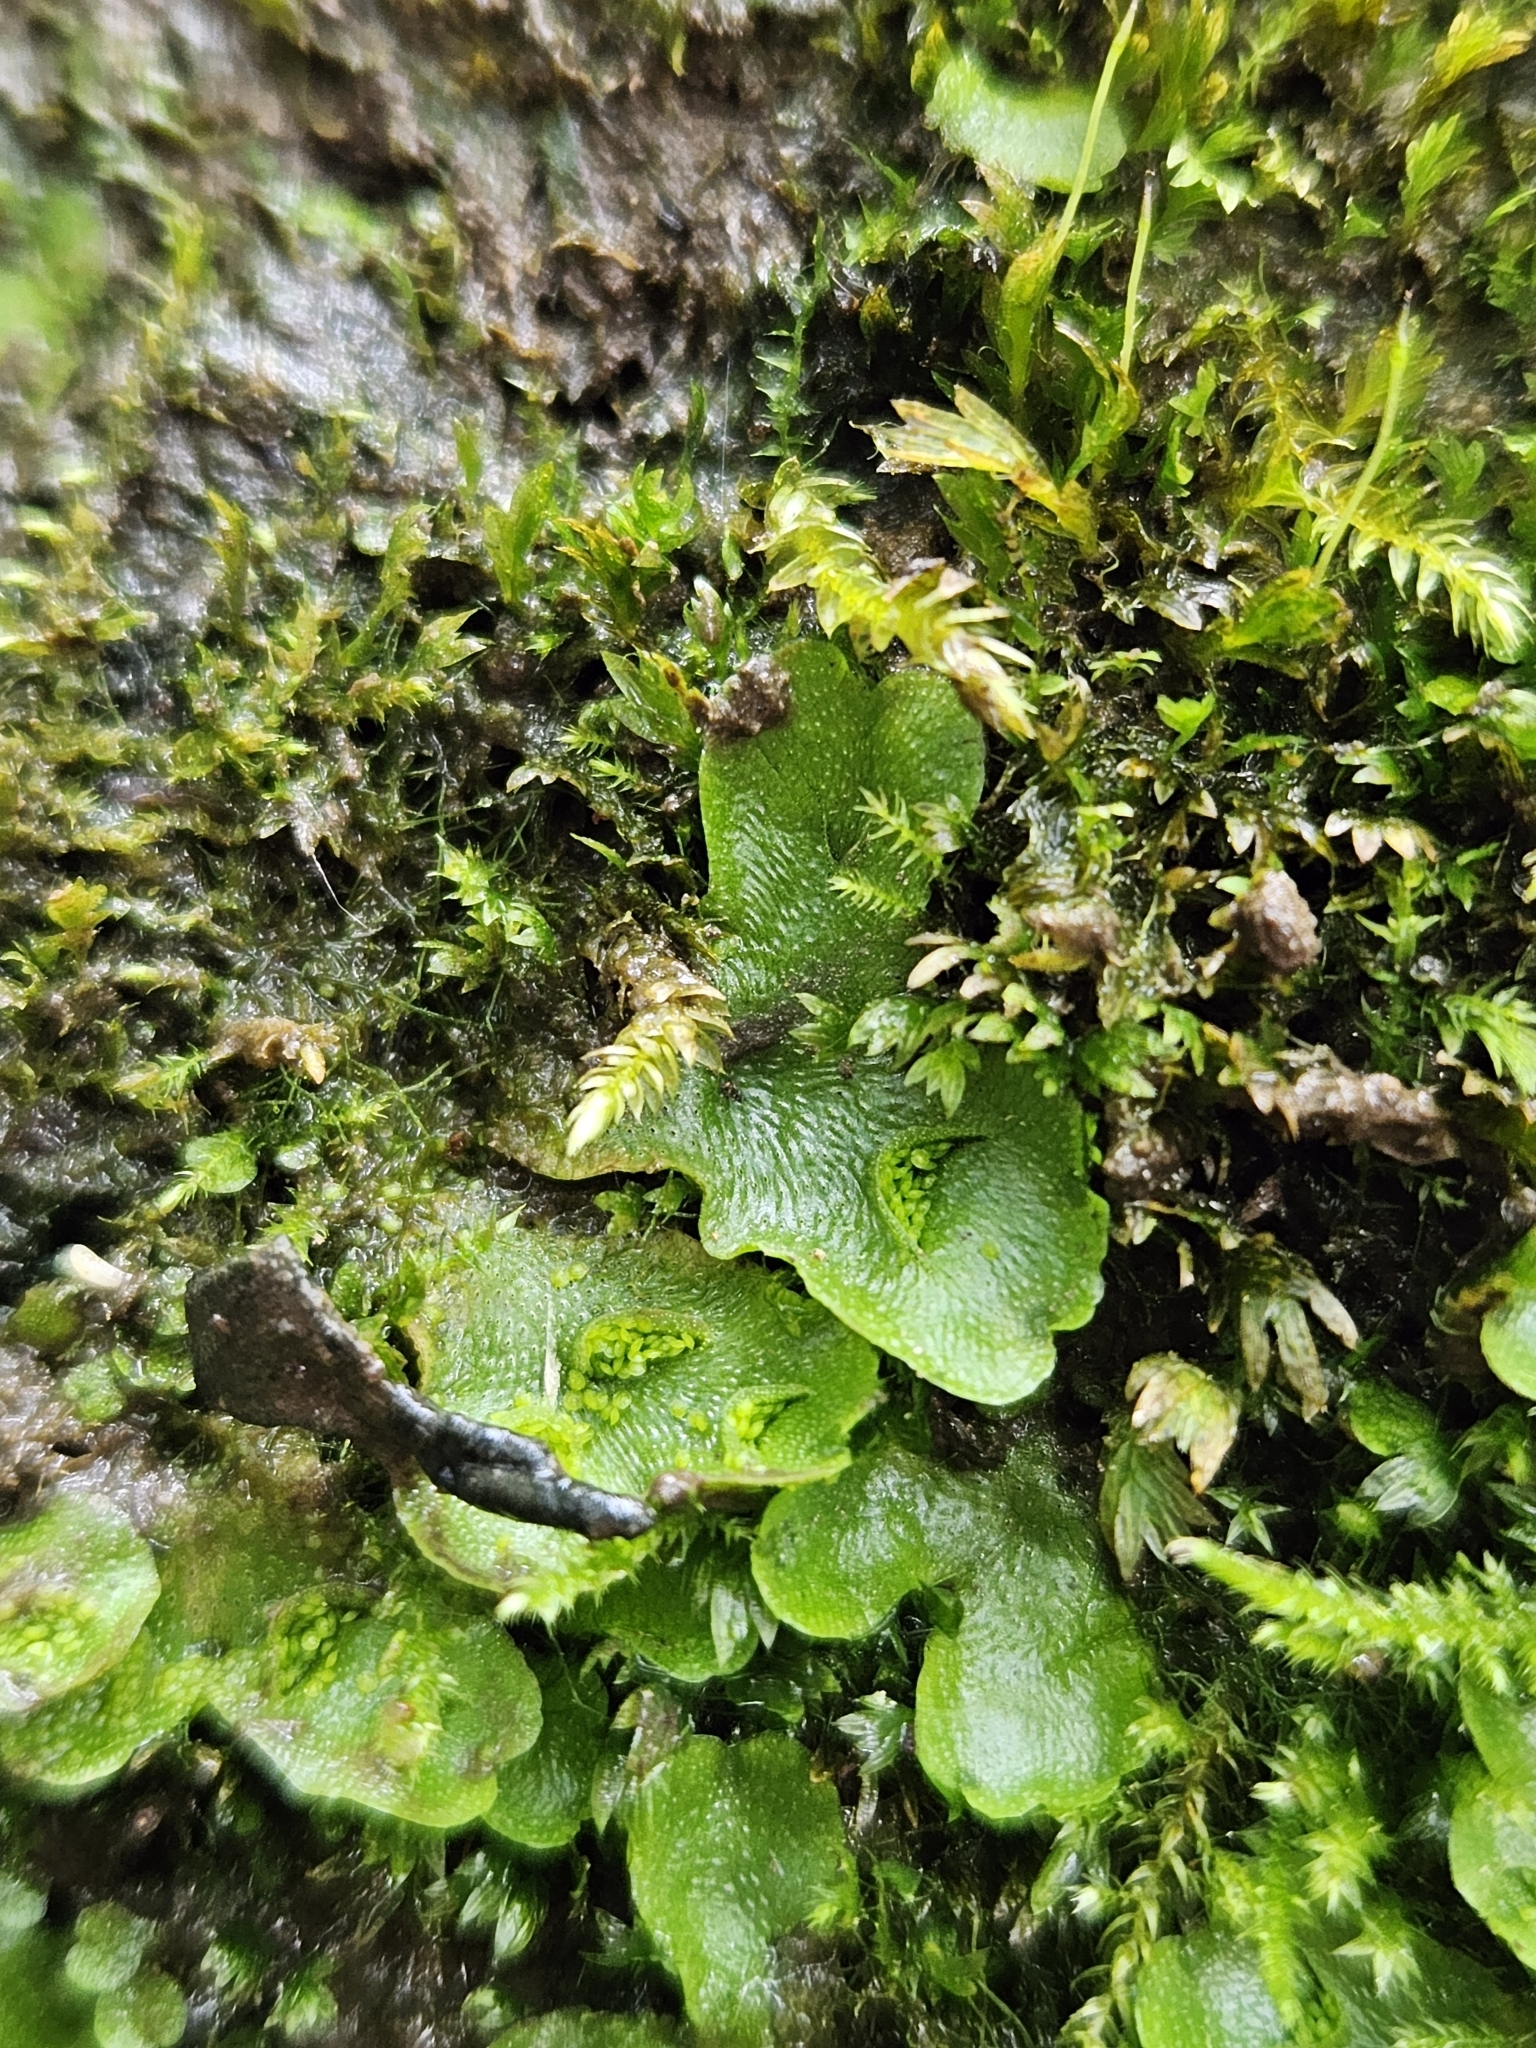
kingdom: Plantae
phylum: Marchantiophyta
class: Marchantiopsida
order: Lunulariales
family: Lunulariaceae
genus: Lunularia
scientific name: Lunularia cruciata
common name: Crescent-cup liverwort
